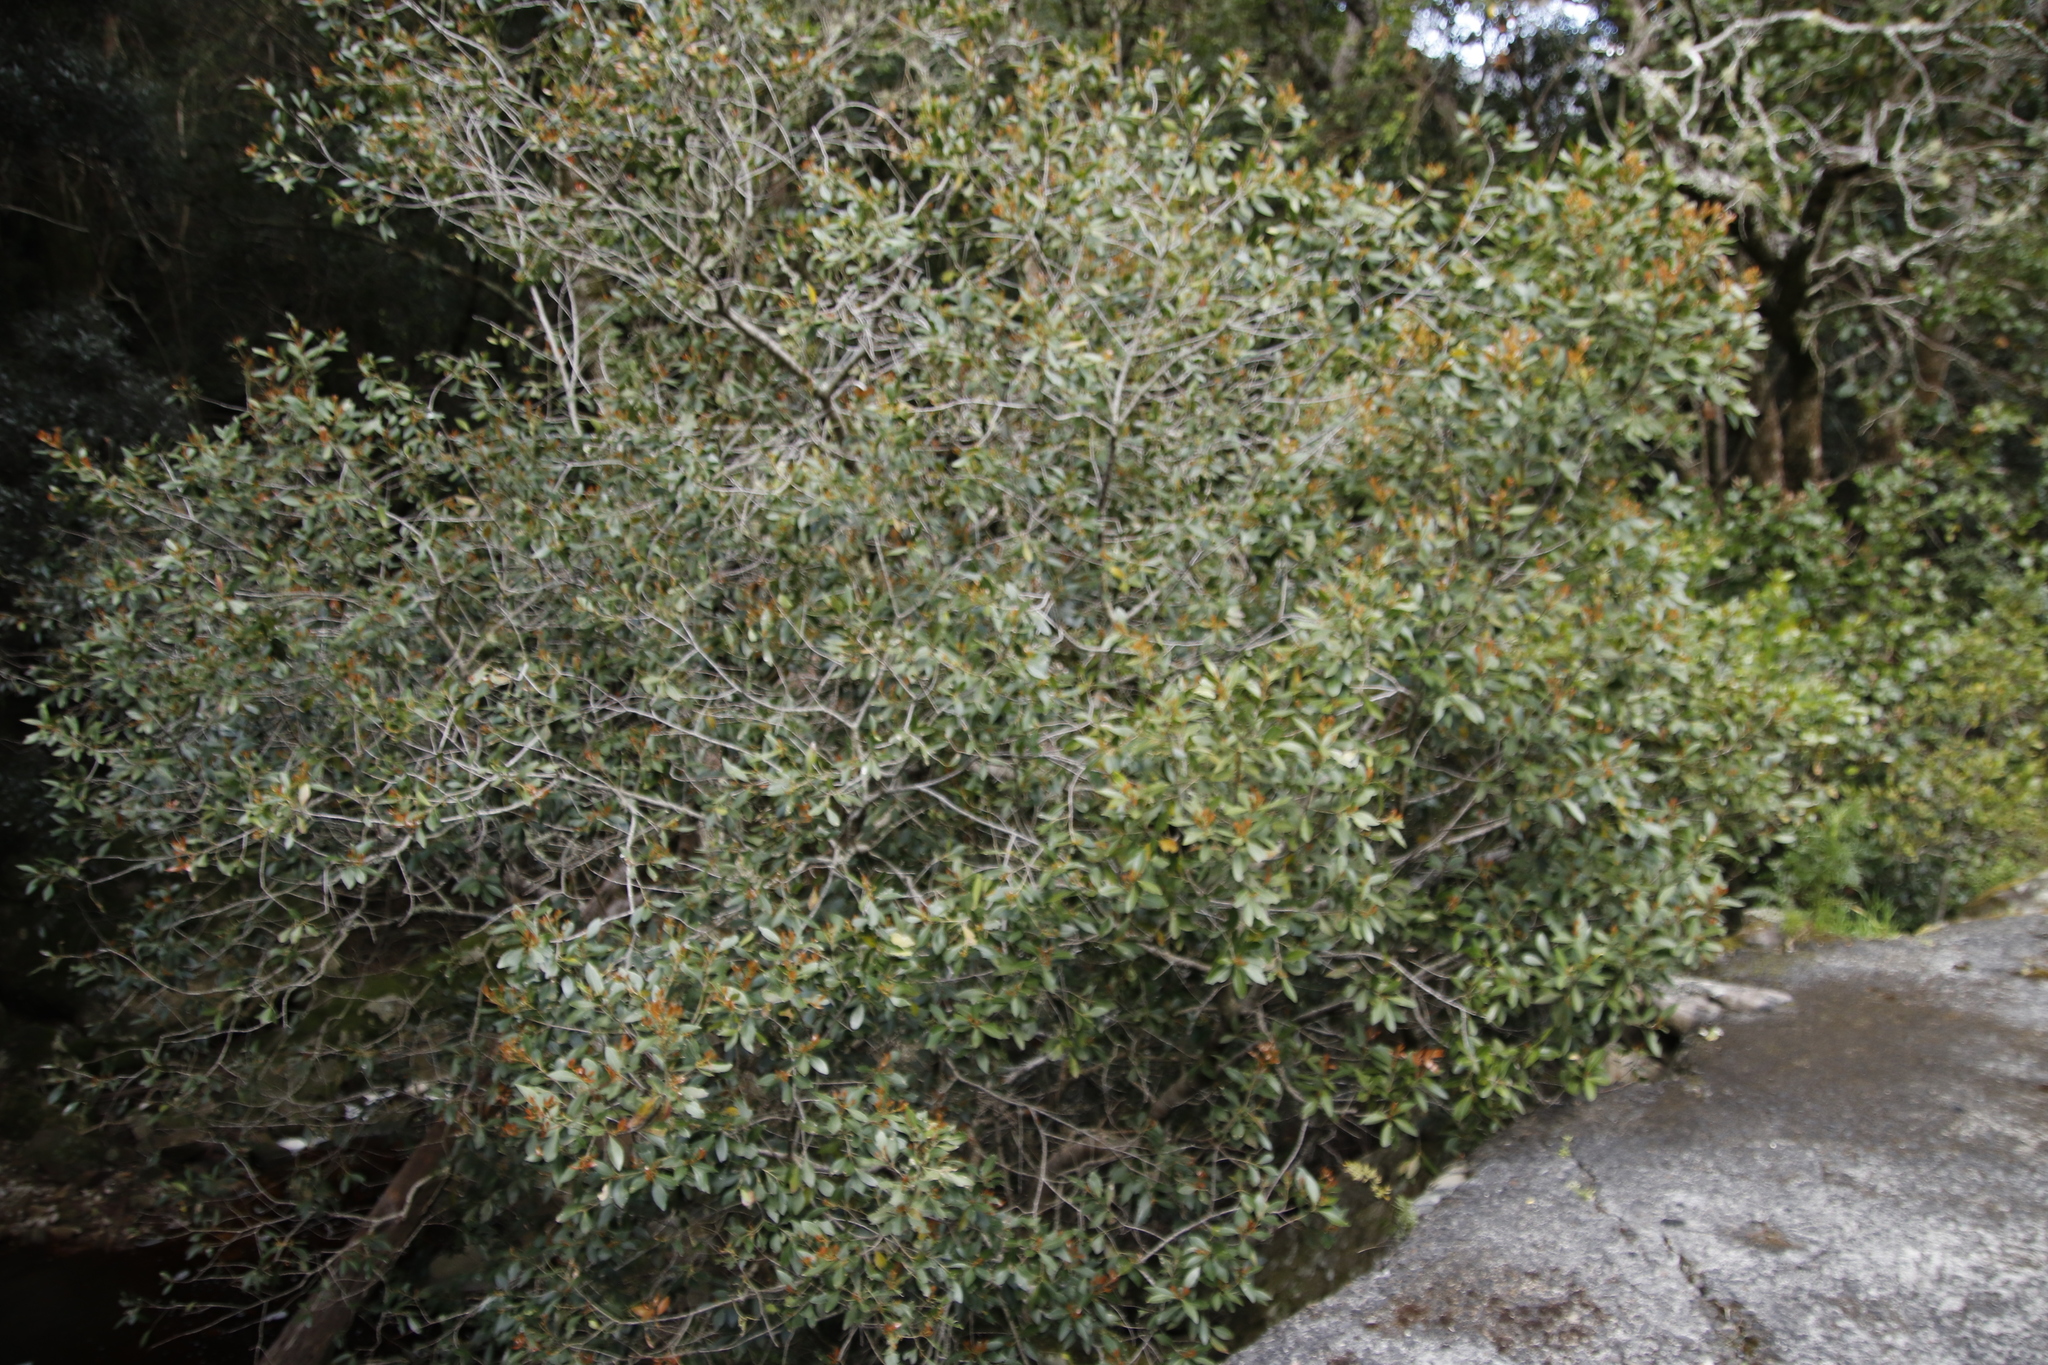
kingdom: Plantae
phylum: Tracheophyta
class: Magnoliopsida
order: Celastrales
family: Celastraceae
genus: Elaeodendron
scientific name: Elaeodendron schinoides
